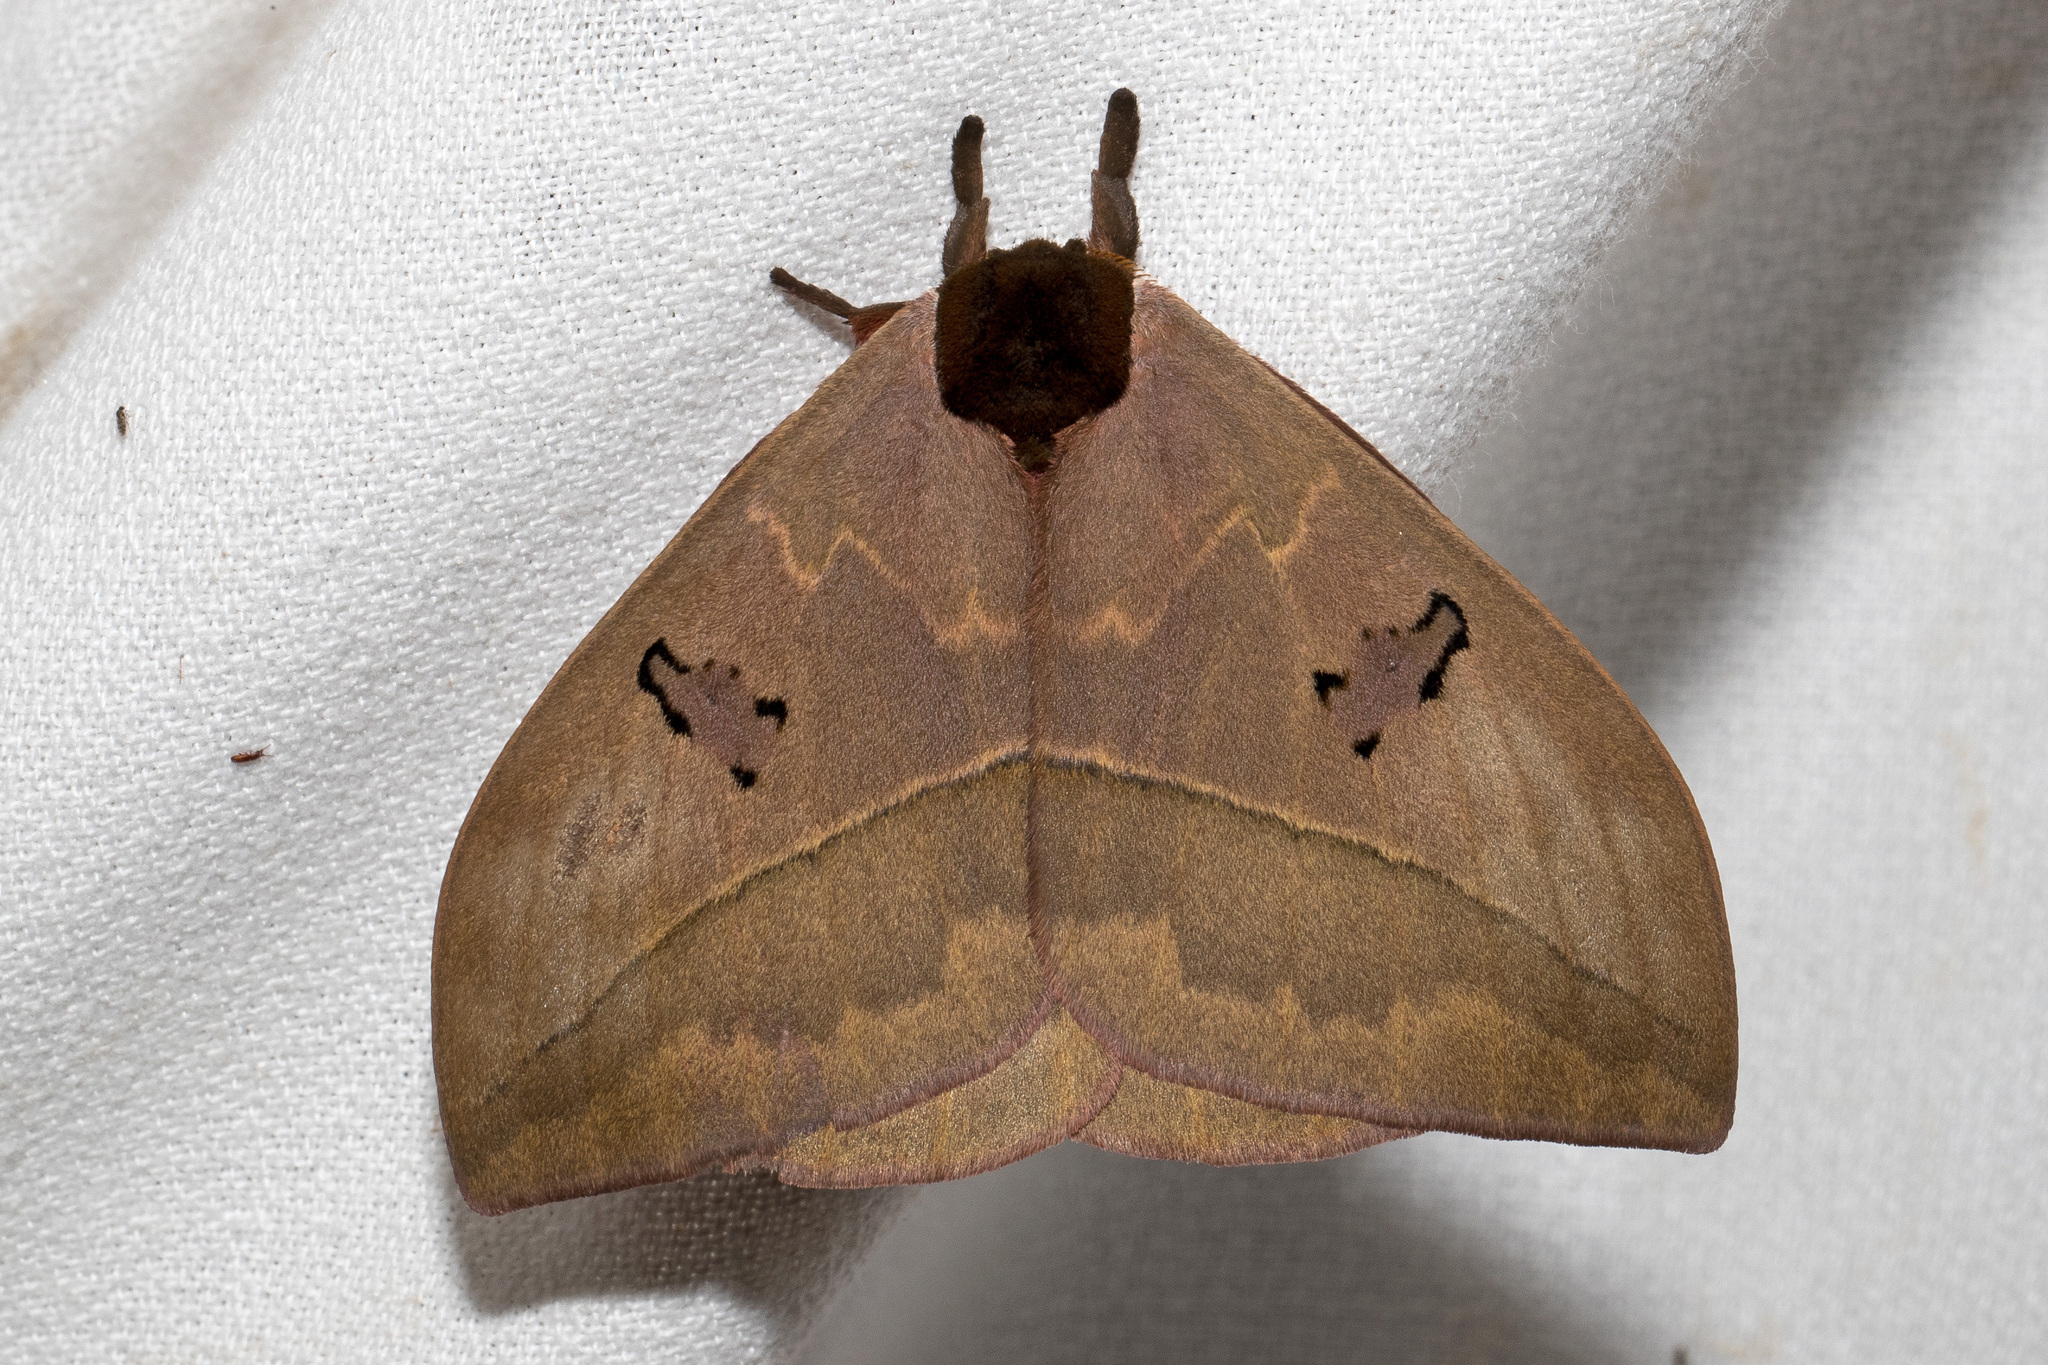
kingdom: Animalia
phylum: Arthropoda
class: Insecta
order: Lepidoptera
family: Saturniidae
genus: Automeris
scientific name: Automeris zugana
